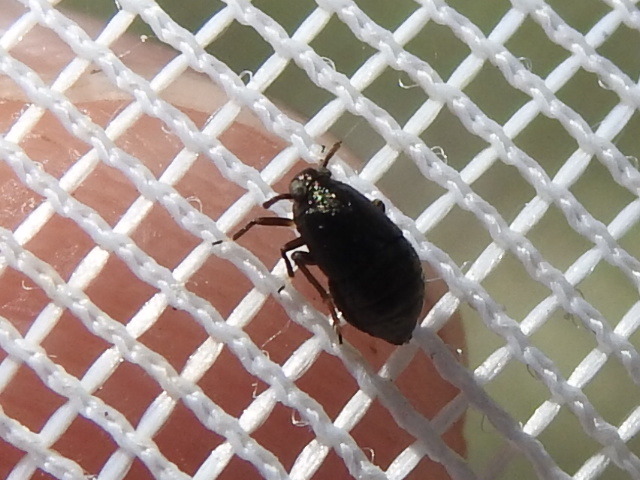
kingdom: Animalia
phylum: Arthropoda
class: Insecta
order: Hemiptera
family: Delphacidae
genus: Pissonotus
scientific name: Pissonotus divergens
